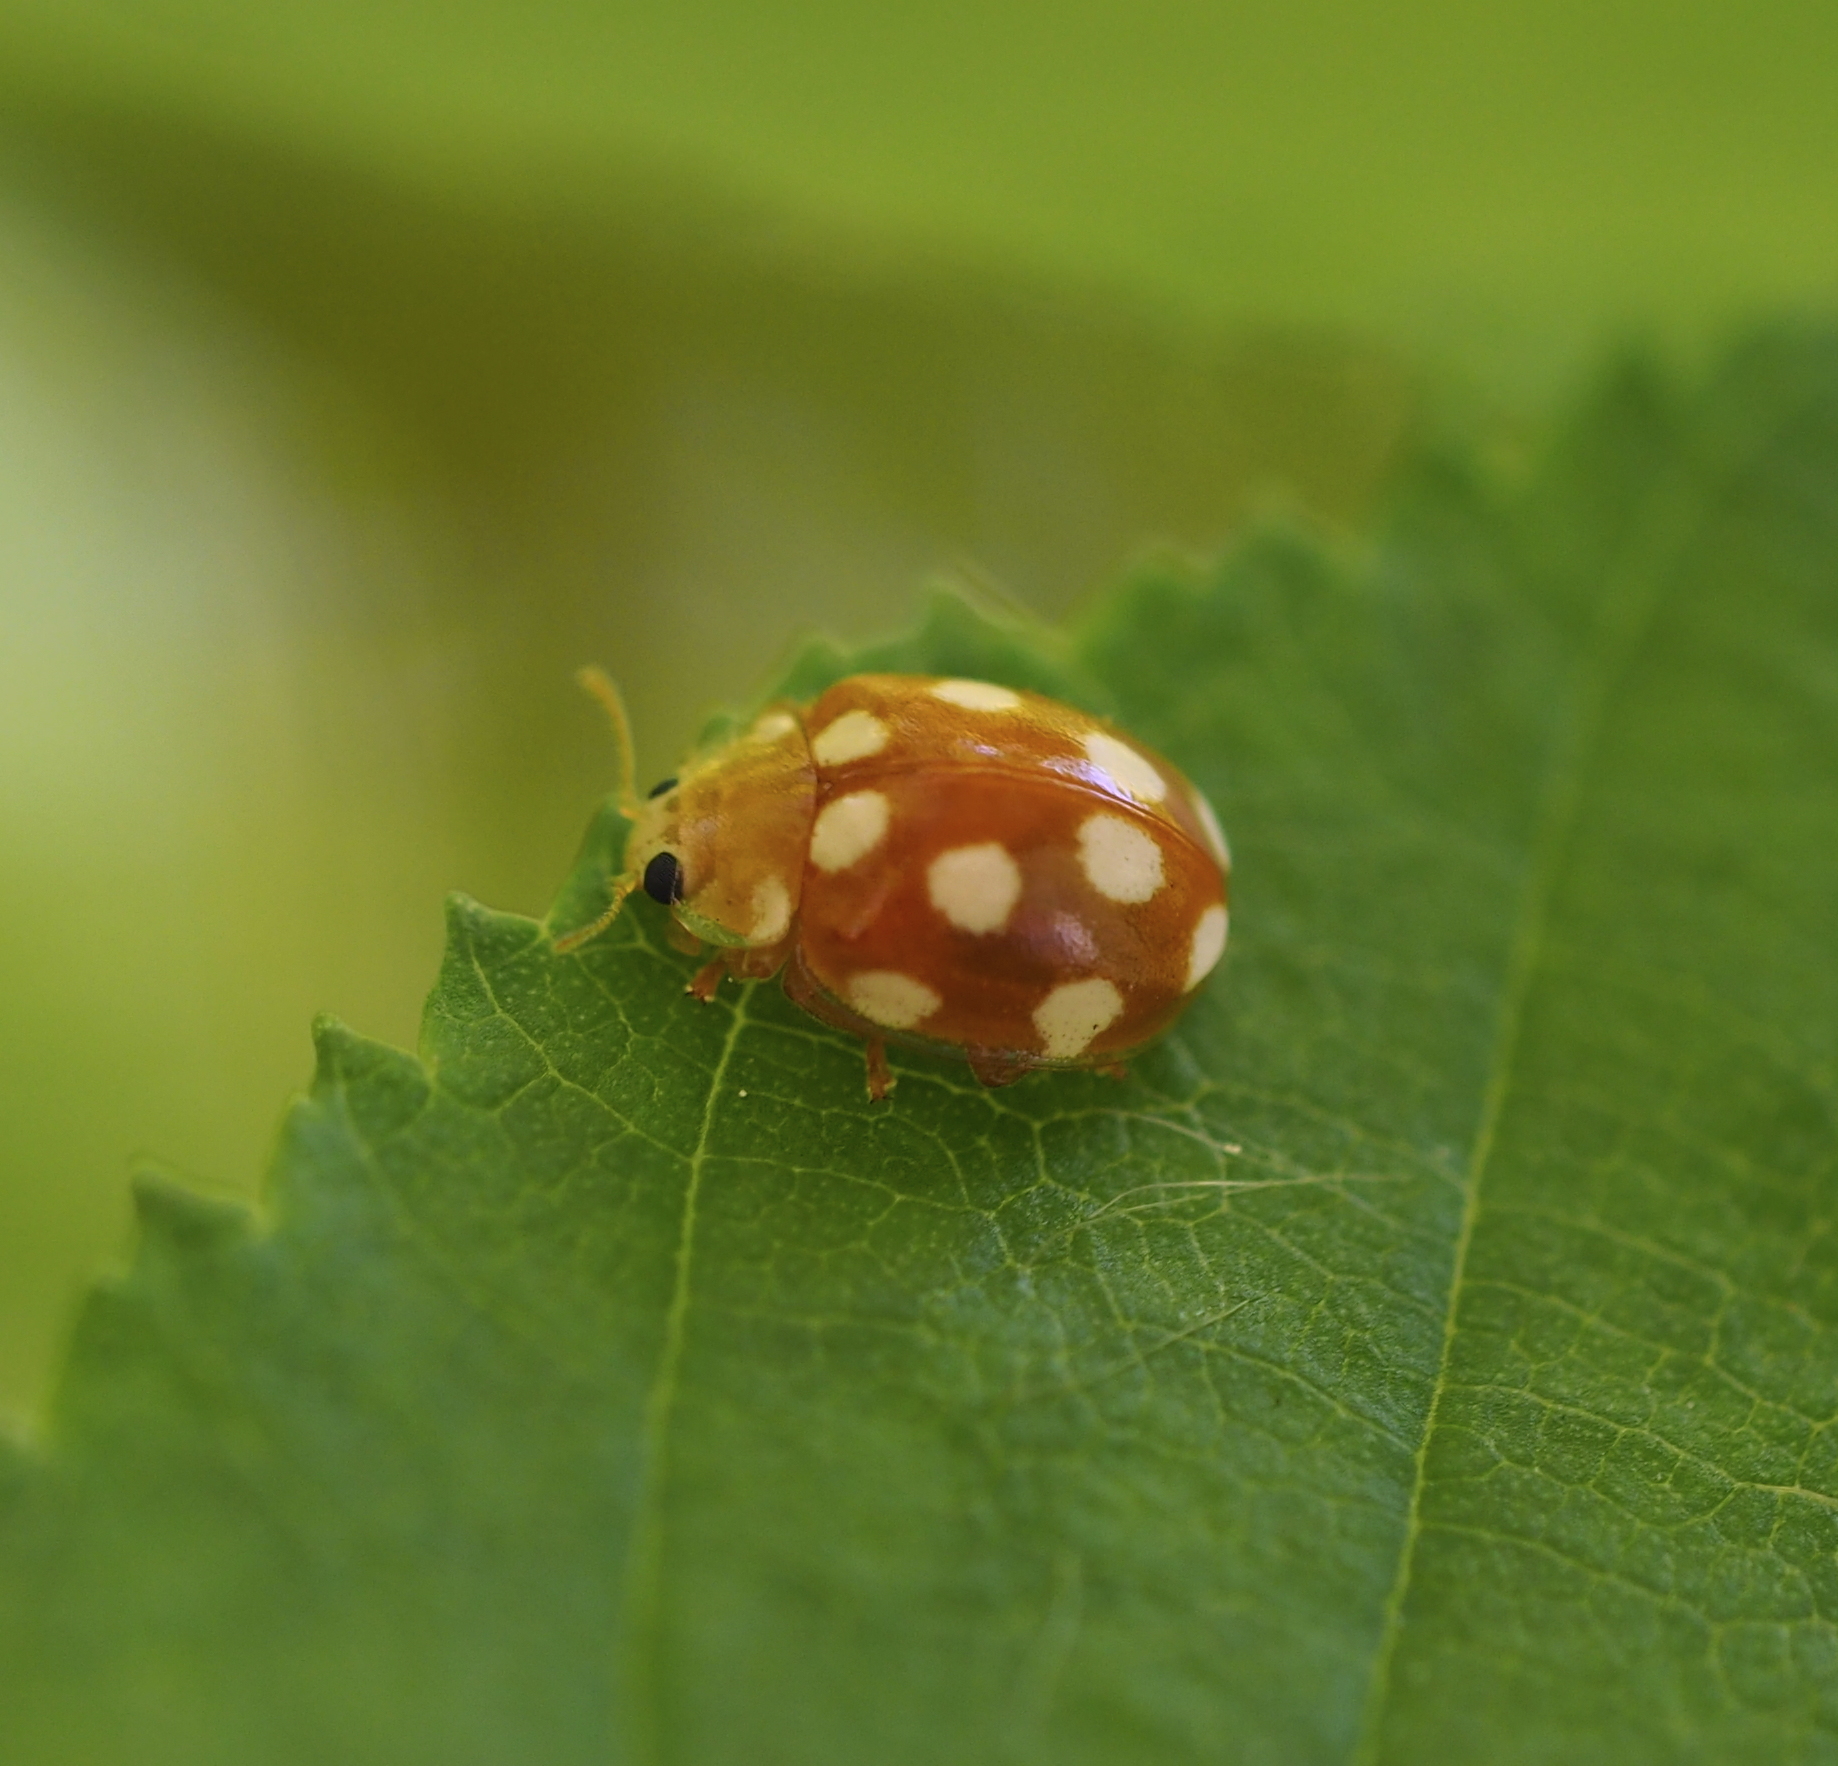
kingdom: Animalia
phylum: Arthropoda
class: Insecta
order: Coleoptera
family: Coccinellidae
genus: Vibidia
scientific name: Vibidia duodecimguttata
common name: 12-spot ladybird
